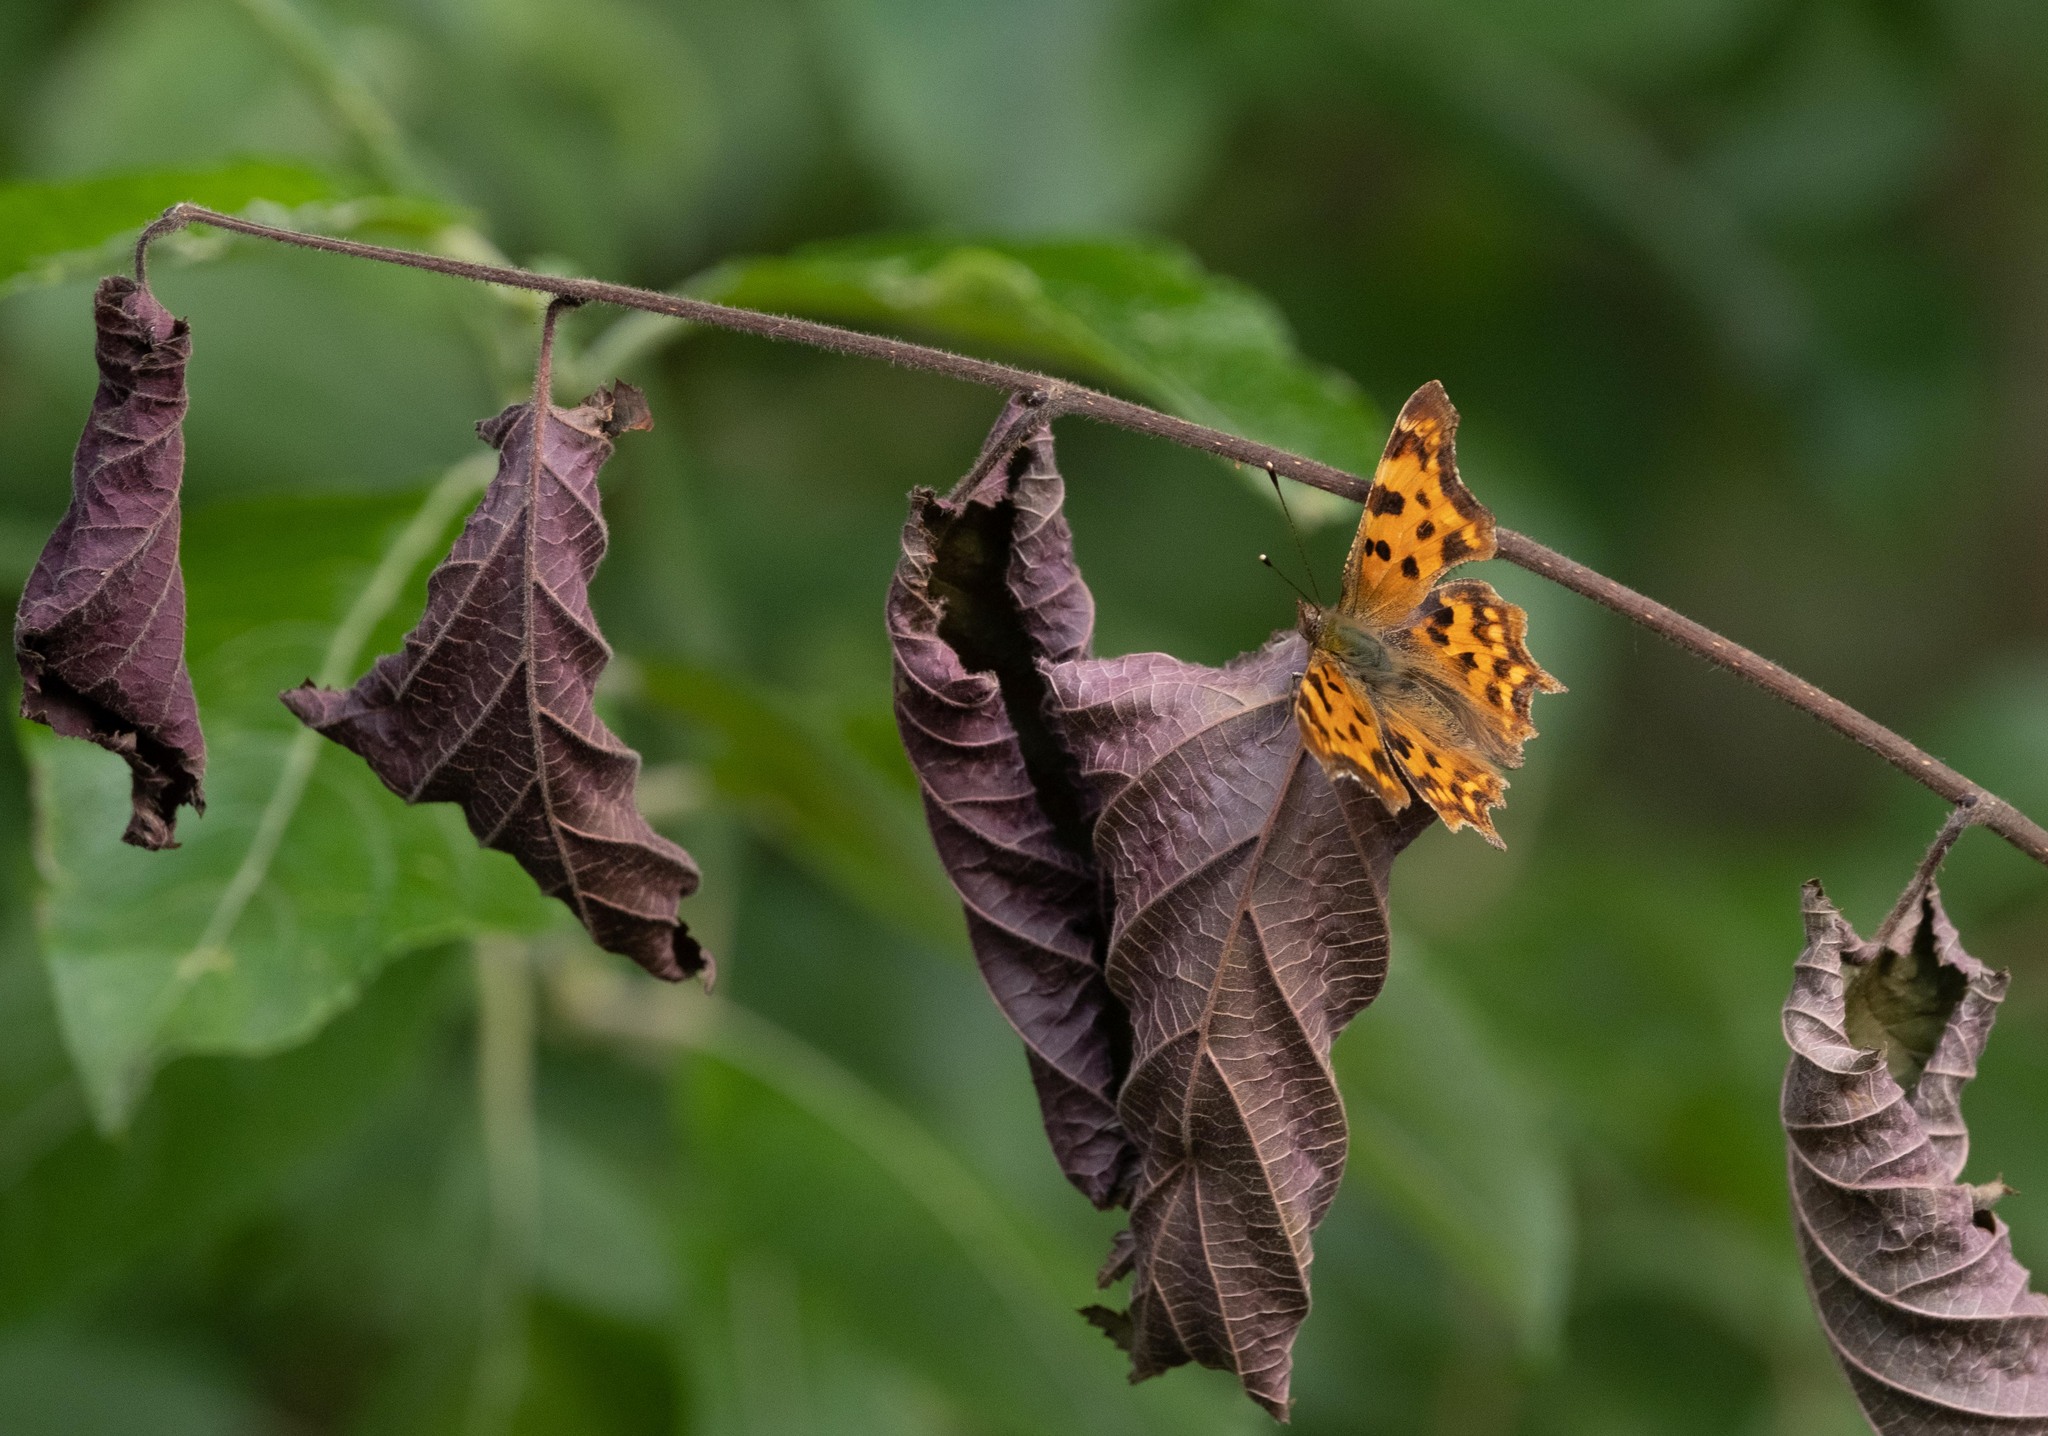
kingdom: Animalia
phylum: Arthropoda
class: Insecta
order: Lepidoptera
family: Nymphalidae
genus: Polygonia
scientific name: Polygonia c-album
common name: Comma
